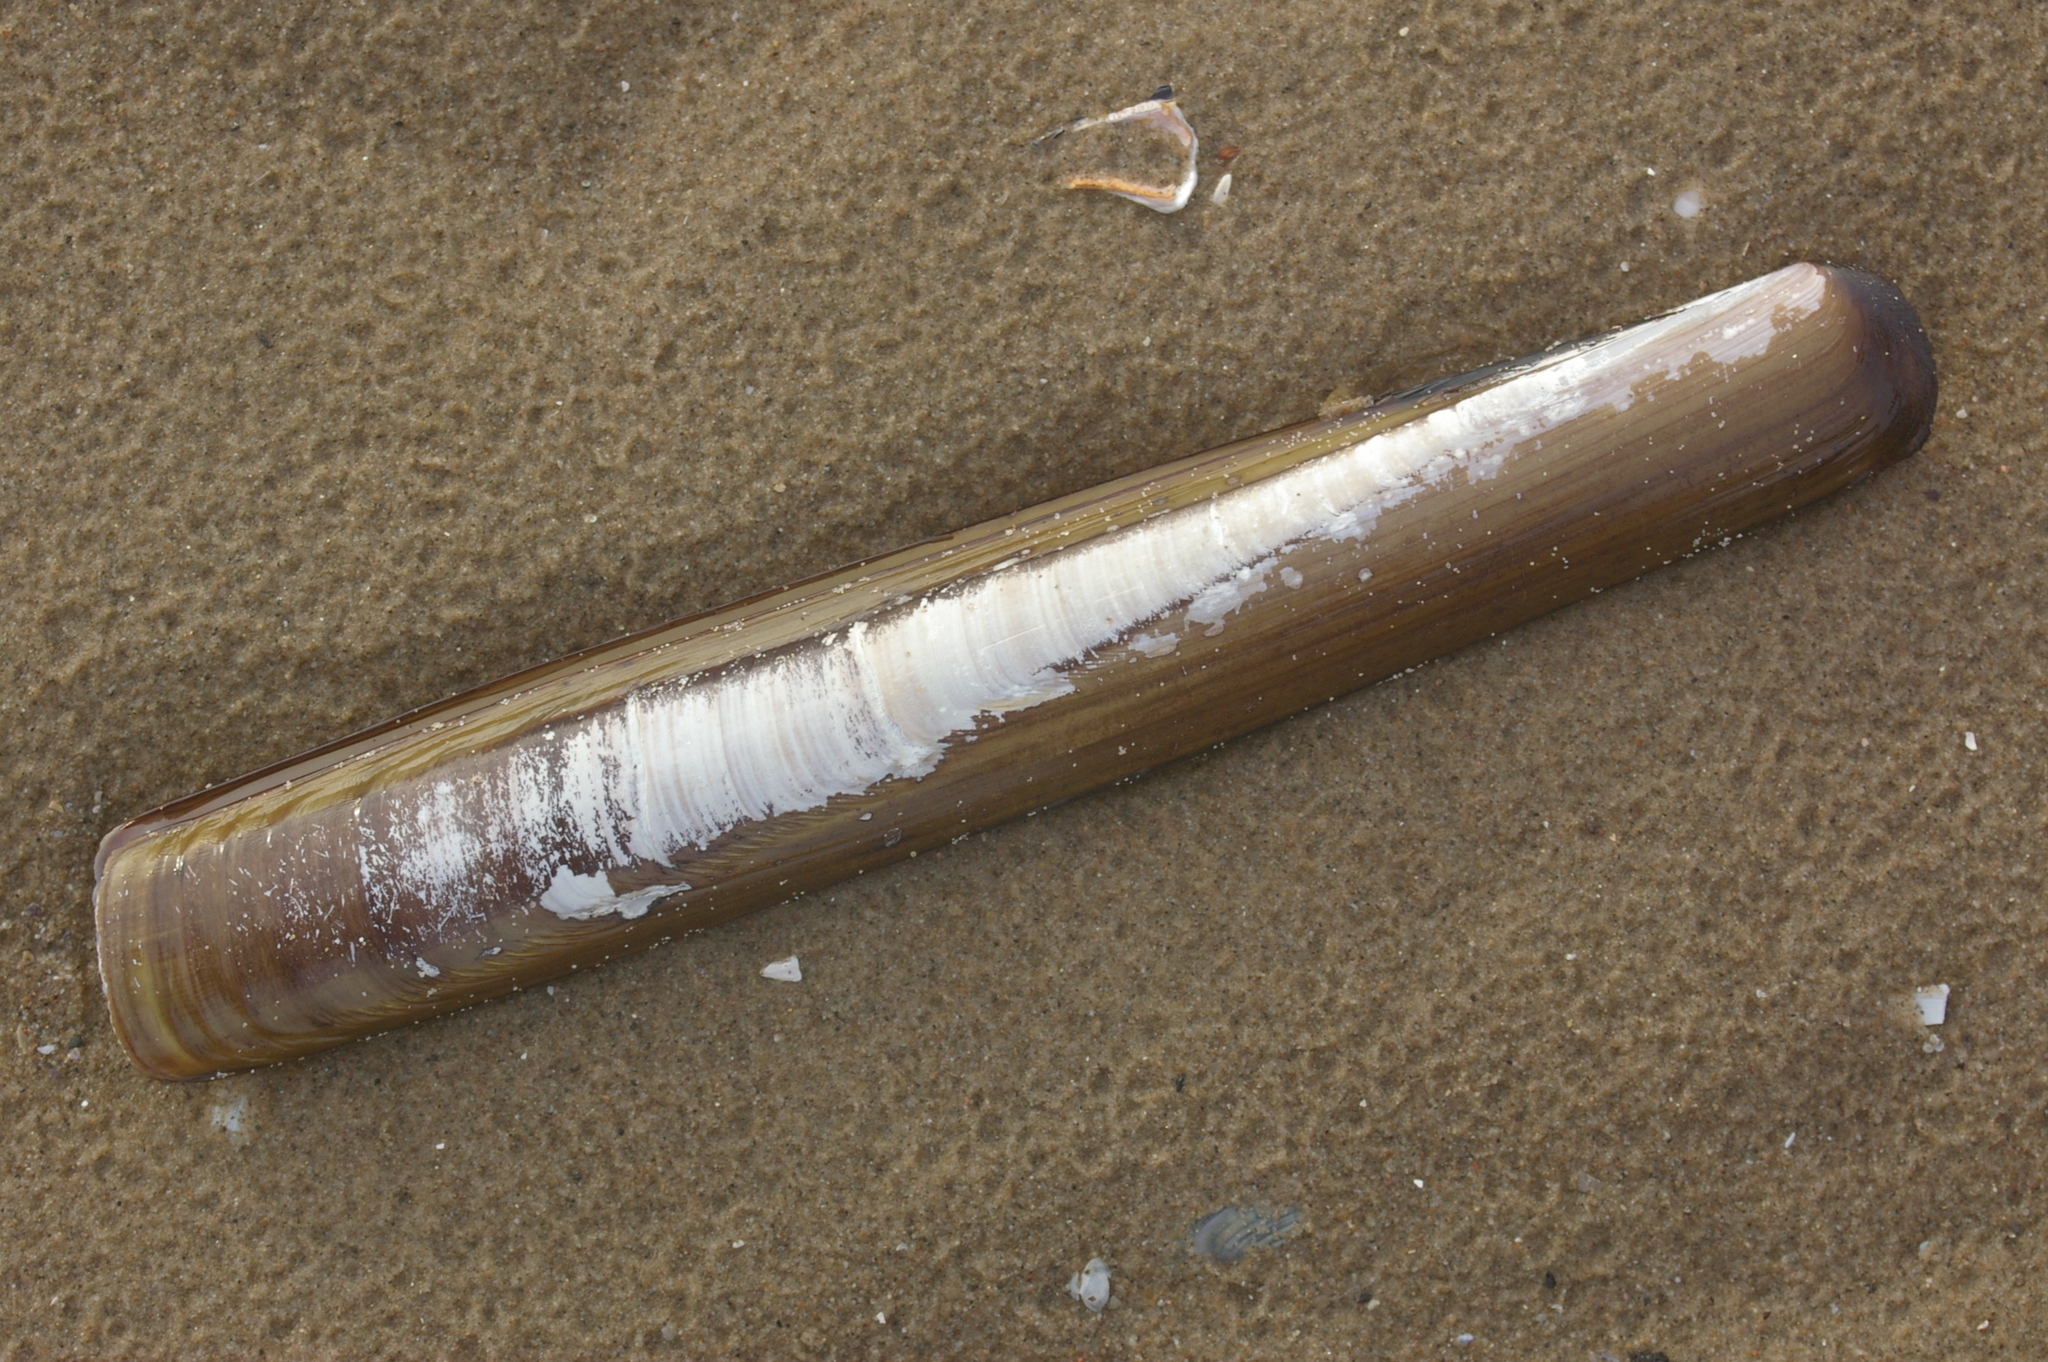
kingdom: Animalia
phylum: Mollusca
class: Bivalvia
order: Adapedonta
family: Pharidae
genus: Ensis
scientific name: Ensis siliqua
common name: Pod razor shell
